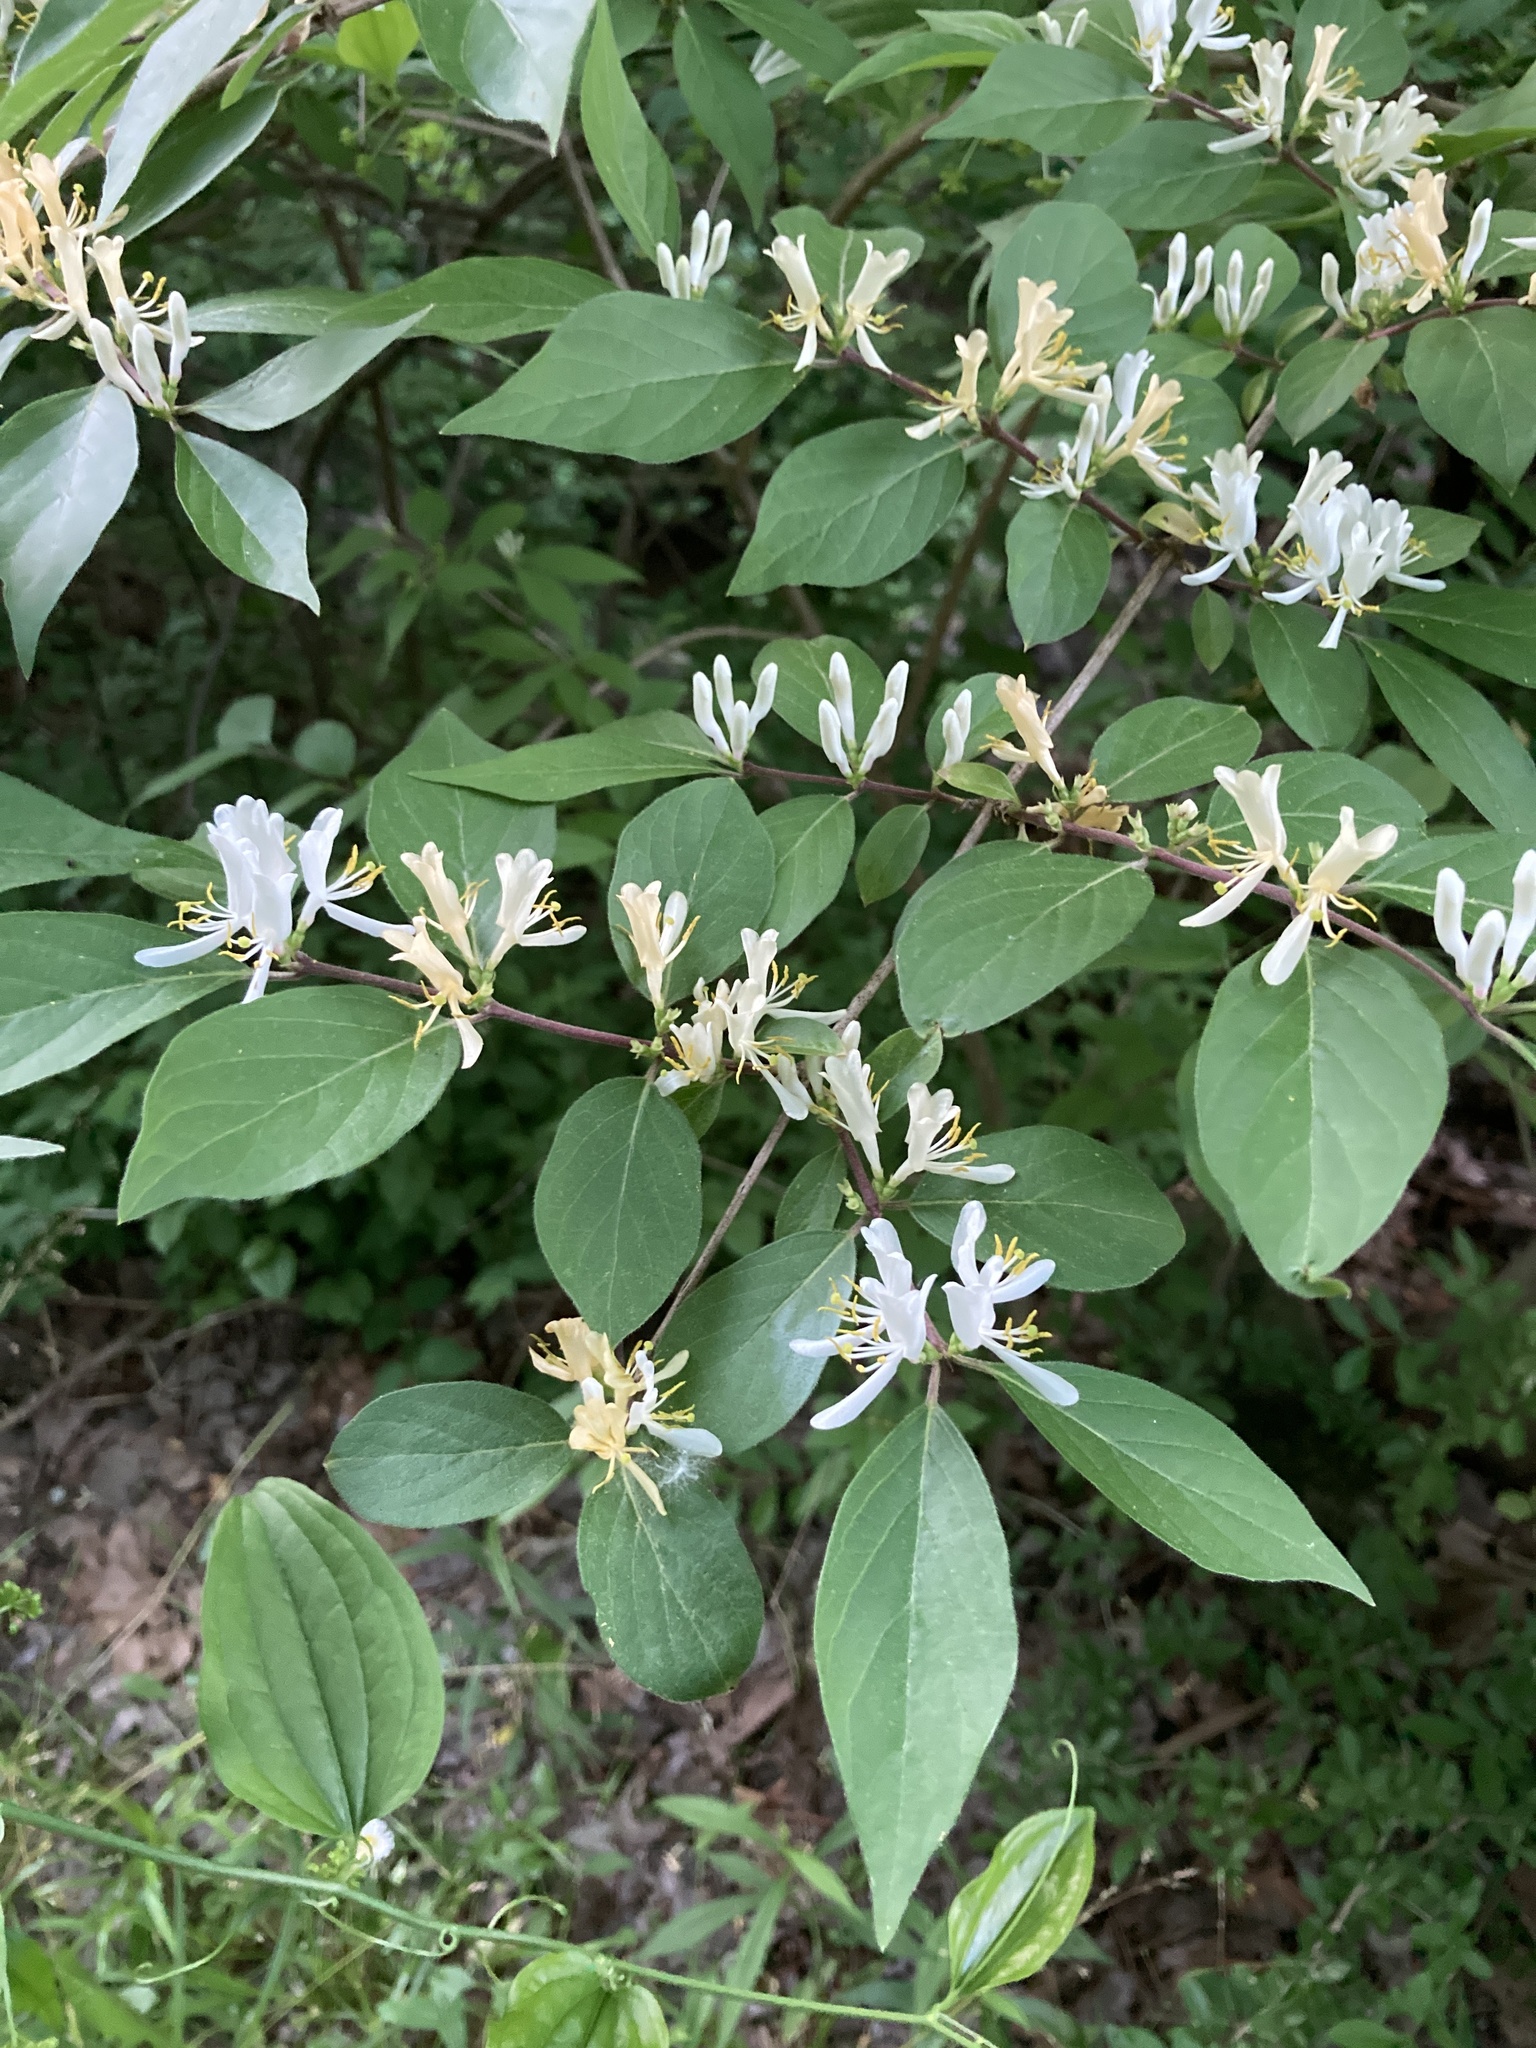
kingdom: Plantae
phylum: Tracheophyta
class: Magnoliopsida
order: Dipsacales
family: Caprifoliaceae
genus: Lonicera
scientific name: Lonicera maackii
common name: Amur honeysuckle
